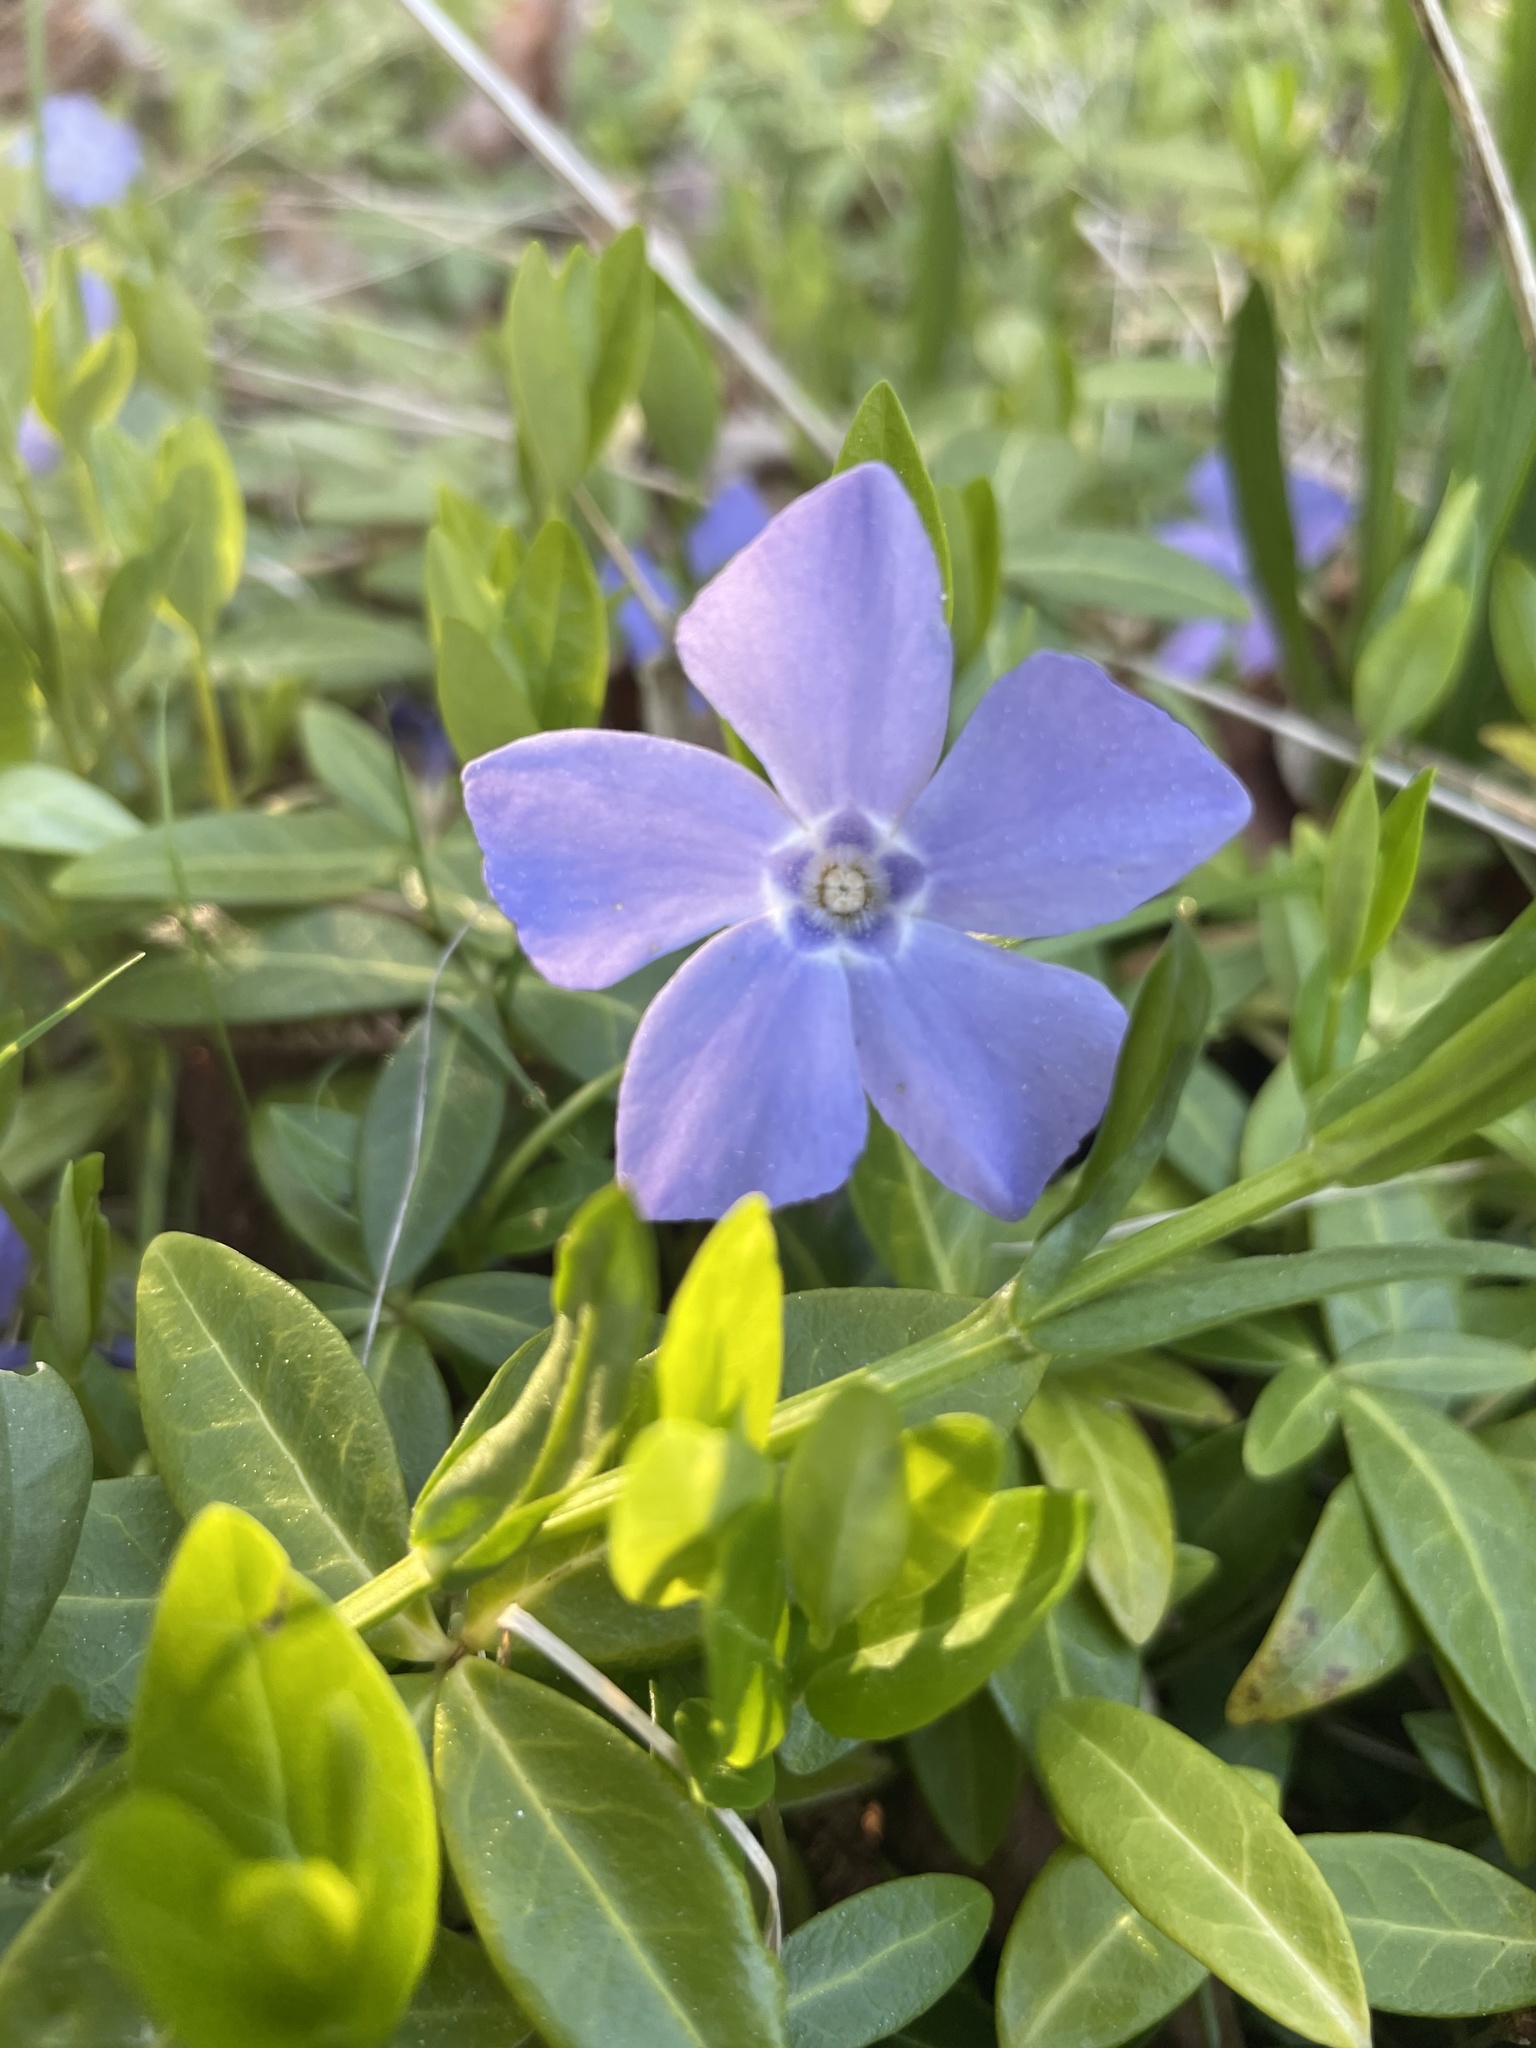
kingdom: Plantae
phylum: Tracheophyta
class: Magnoliopsida
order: Gentianales
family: Apocynaceae
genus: Vinca
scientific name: Vinca minor
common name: Lesser periwinkle
